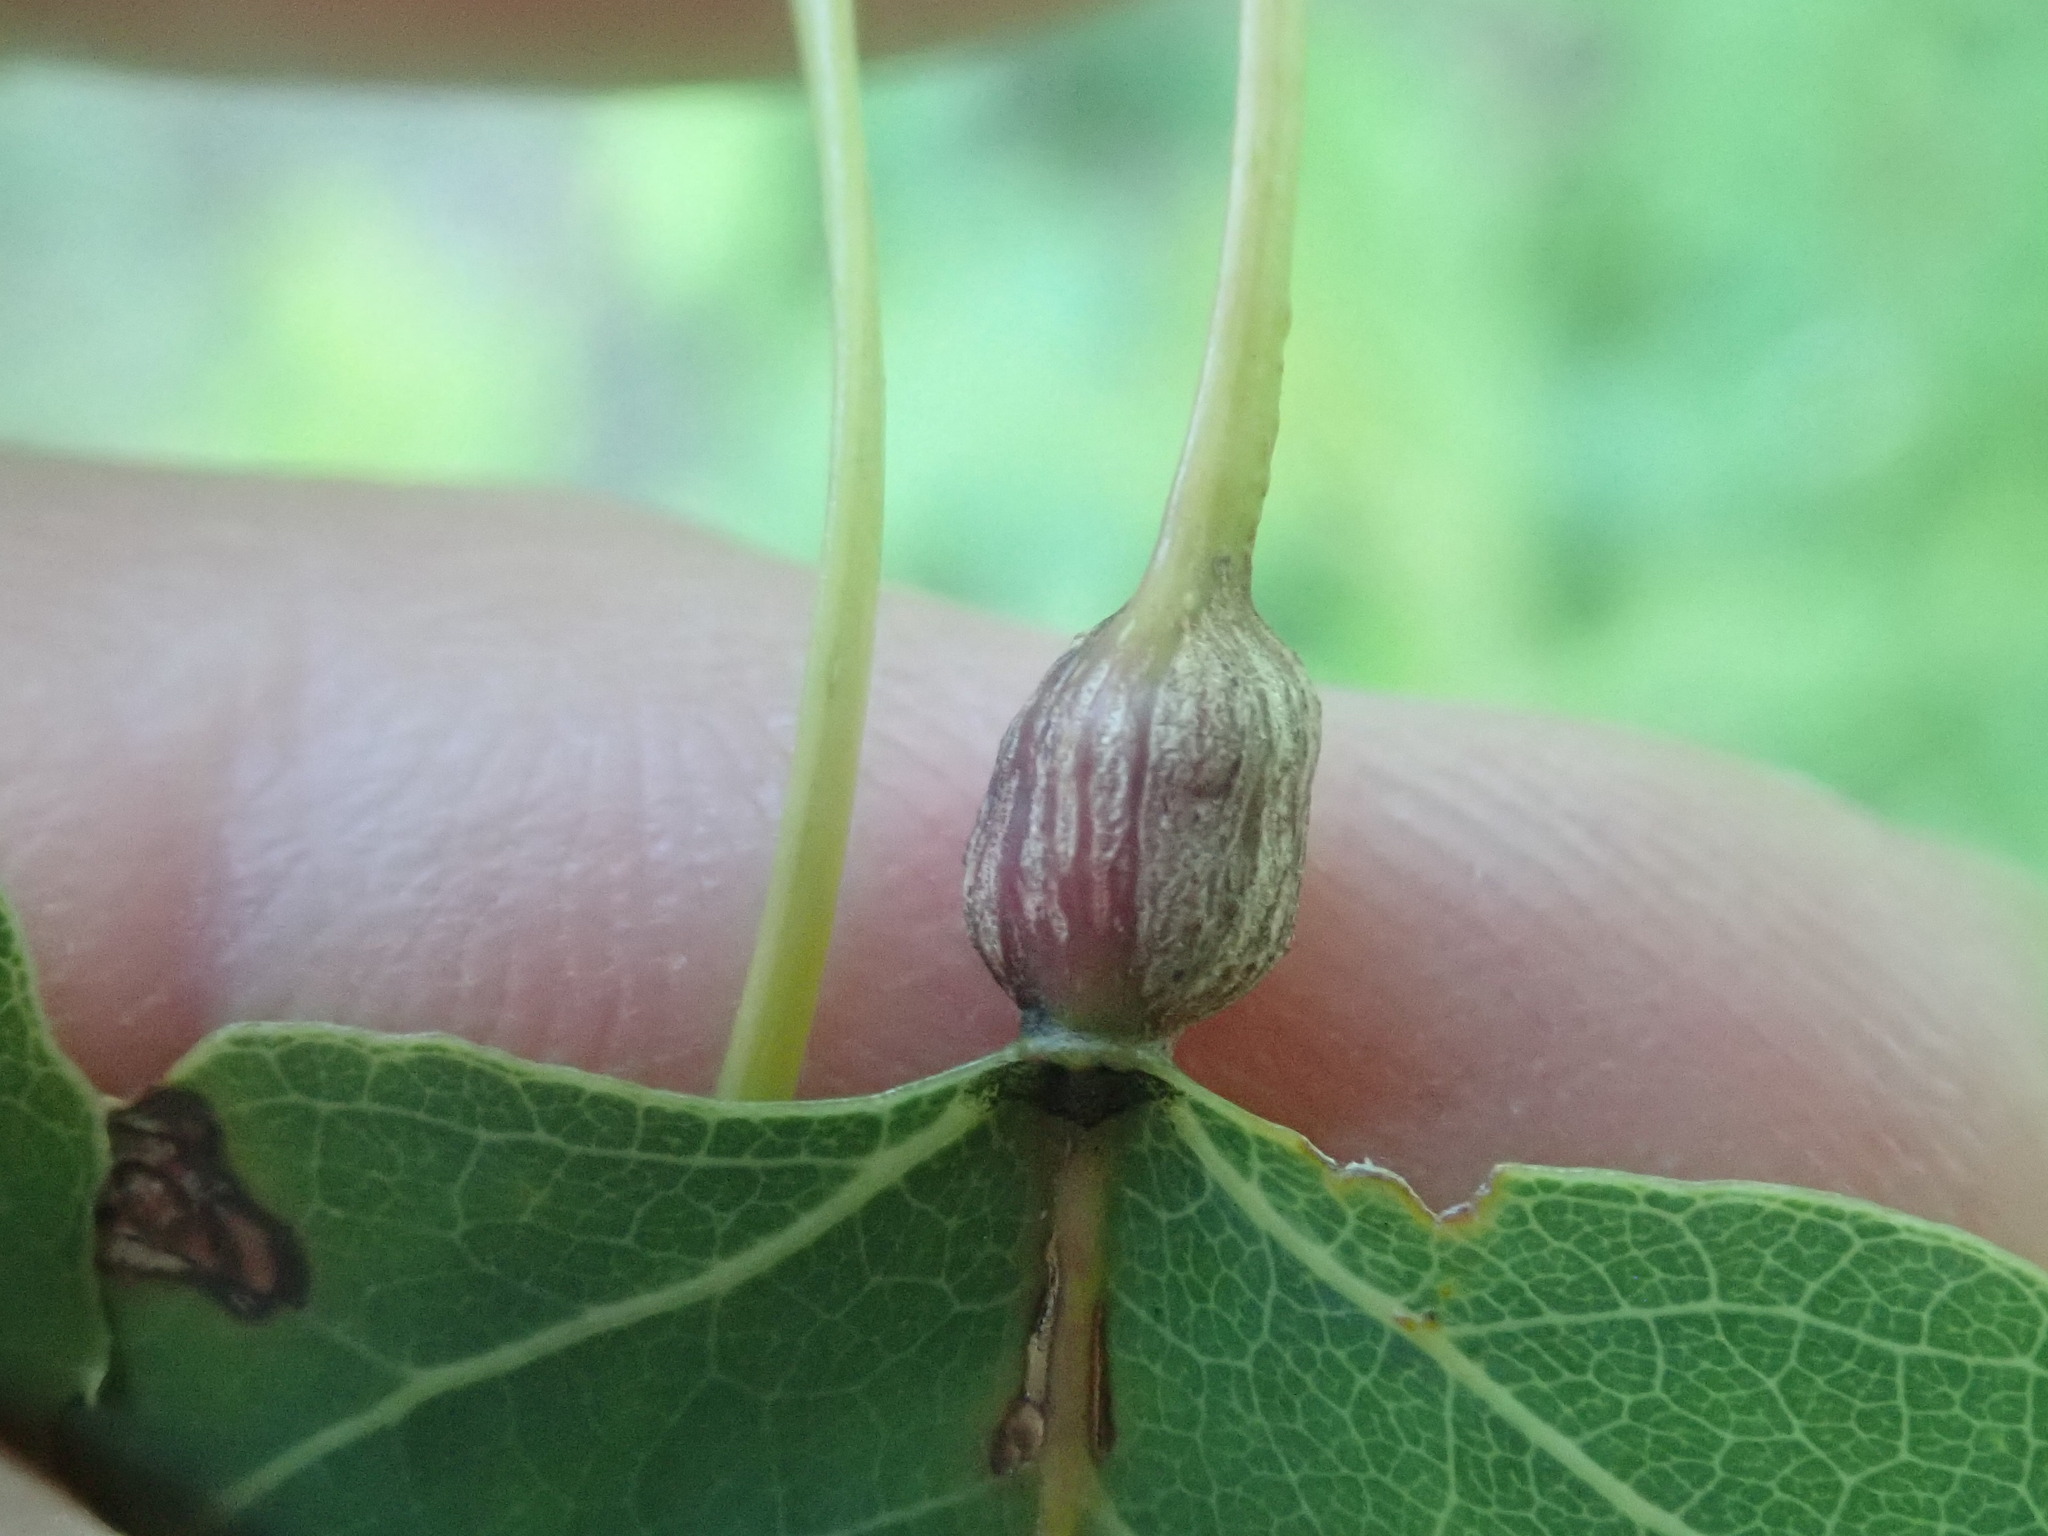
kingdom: Animalia
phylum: Arthropoda
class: Insecta
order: Lepidoptera
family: Nepticulidae
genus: Ectoedemia
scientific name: Ectoedemia populella
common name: Aspen petiole gall moth
